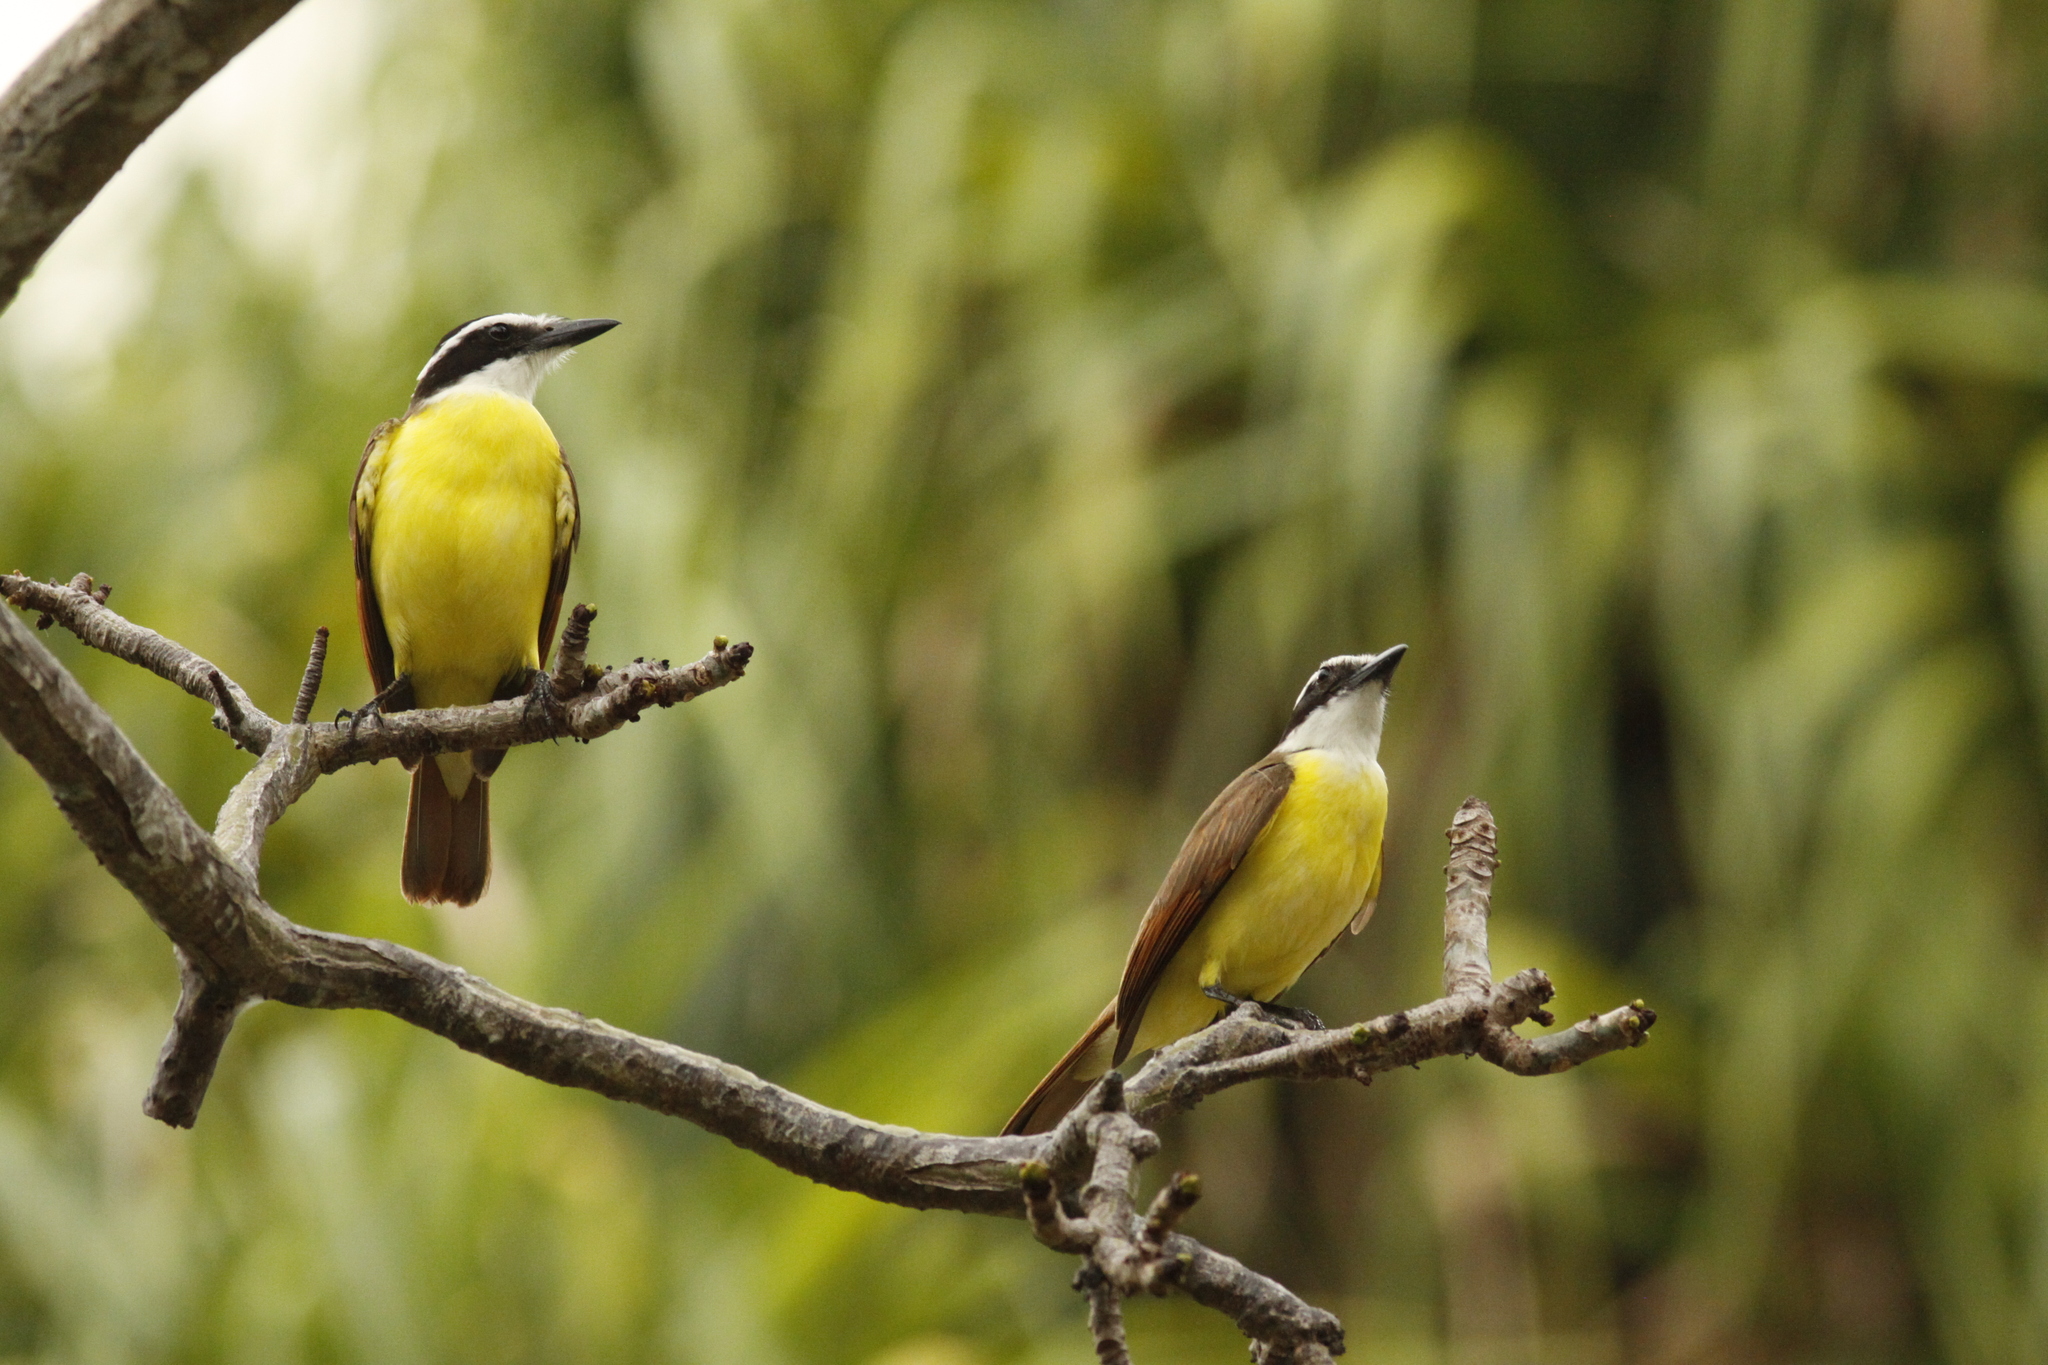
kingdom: Animalia
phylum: Chordata
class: Aves
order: Passeriformes
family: Tyrannidae
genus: Pitangus
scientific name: Pitangus sulphuratus
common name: Great kiskadee
